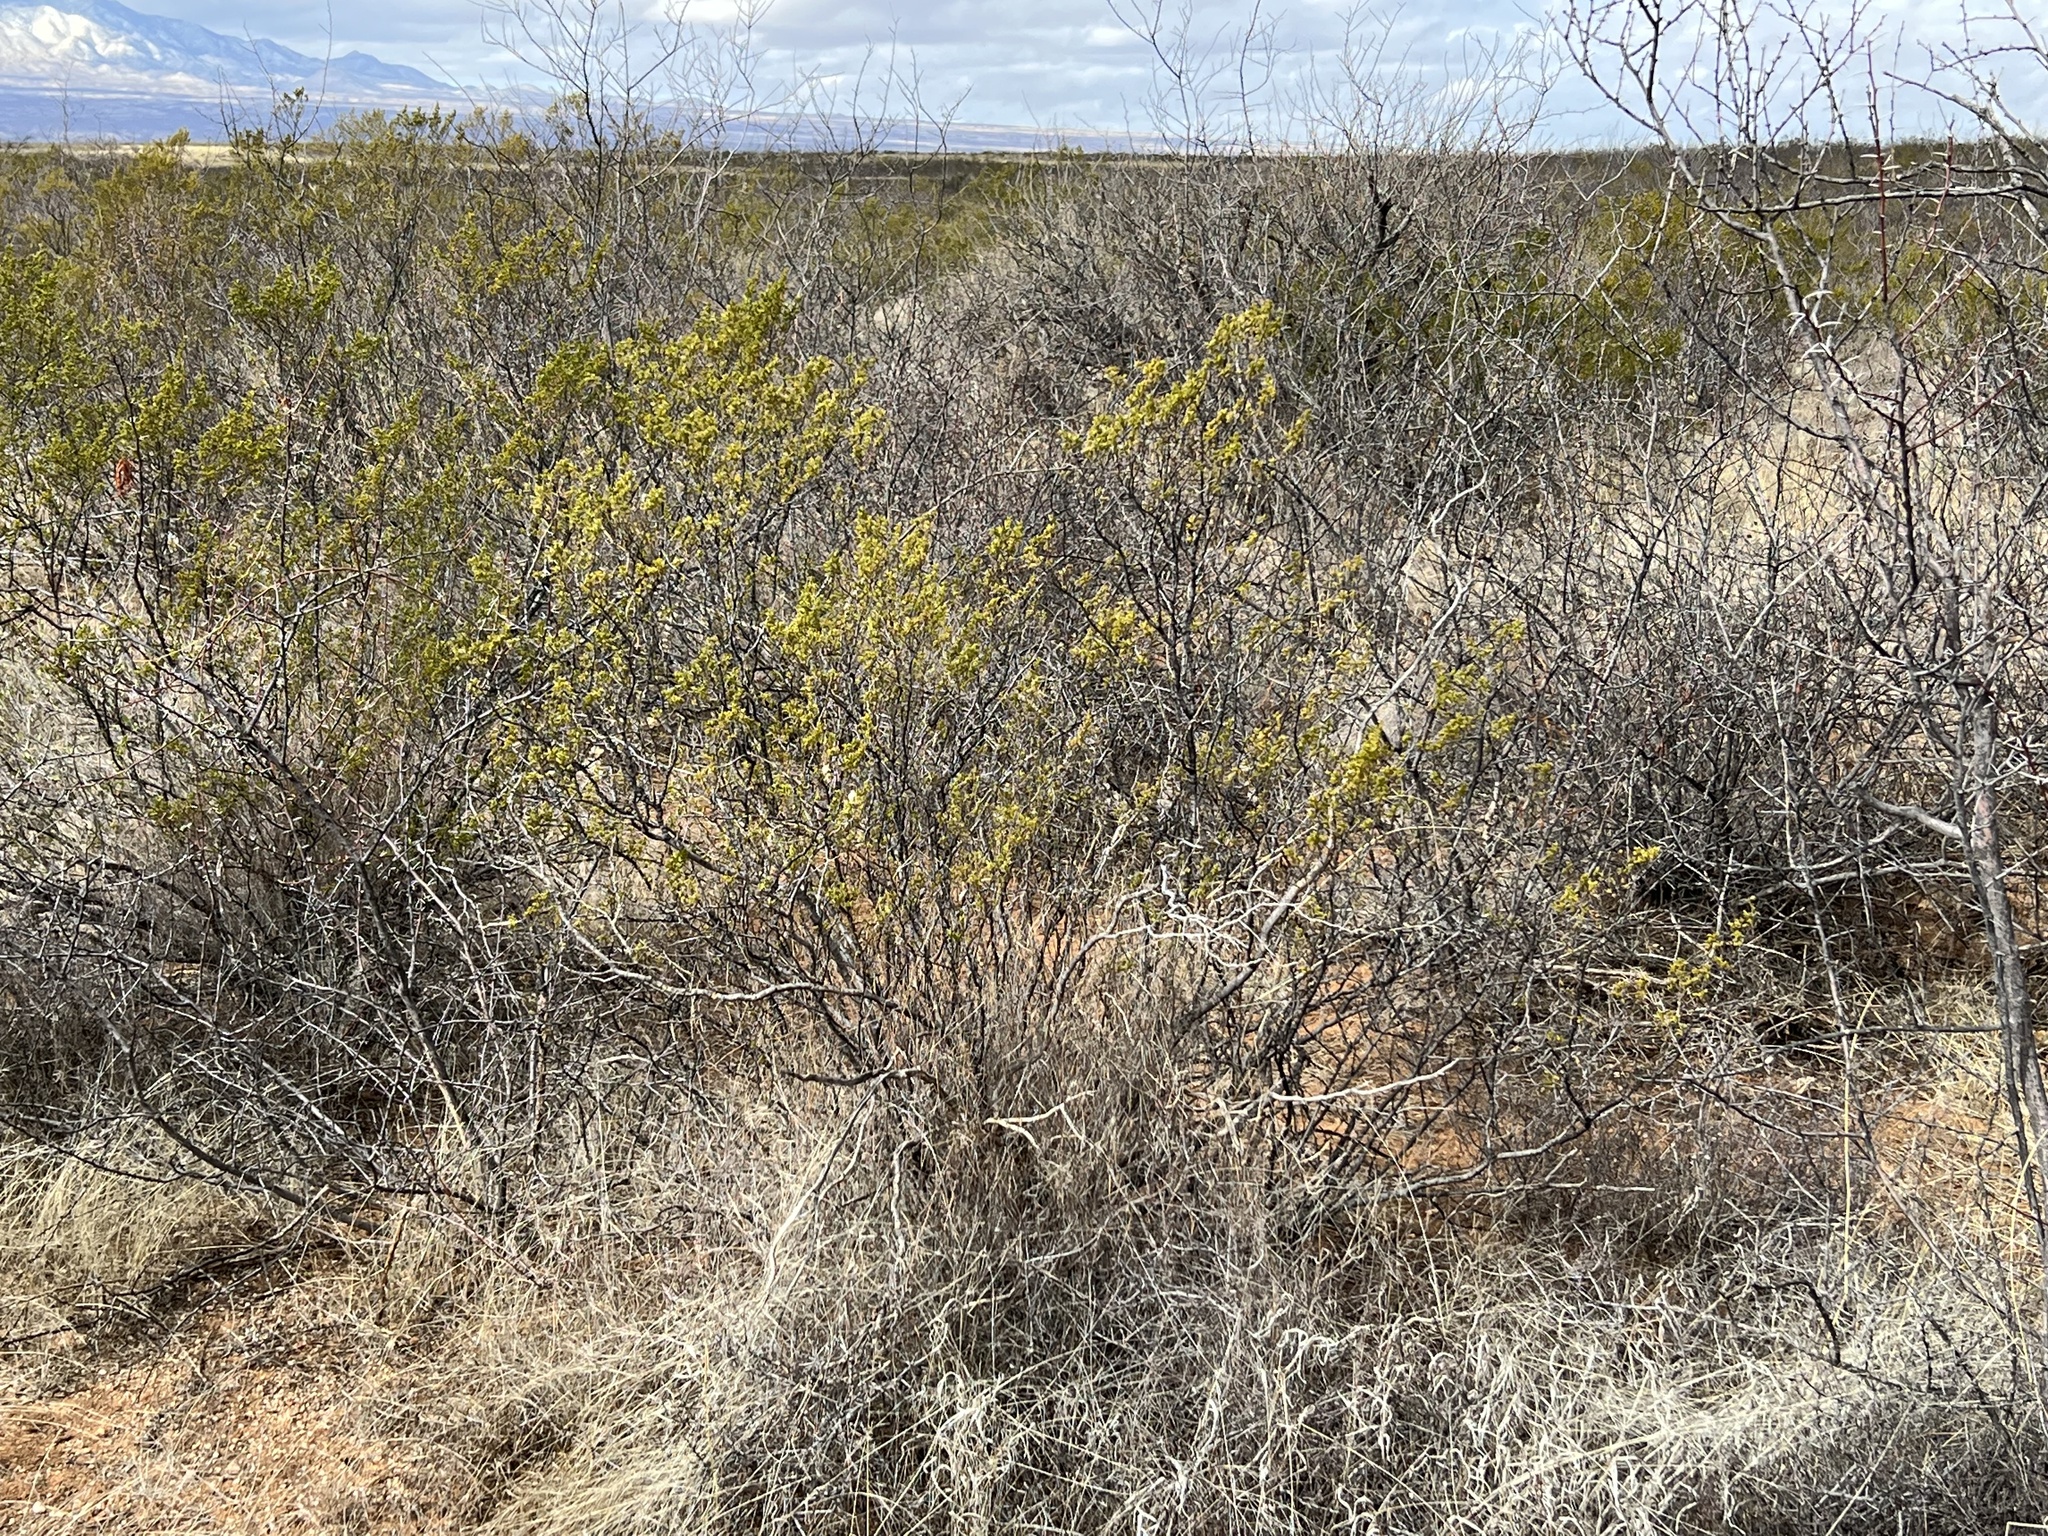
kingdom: Plantae
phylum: Tracheophyta
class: Magnoliopsida
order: Zygophyllales
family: Zygophyllaceae
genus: Larrea
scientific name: Larrea tridentata
